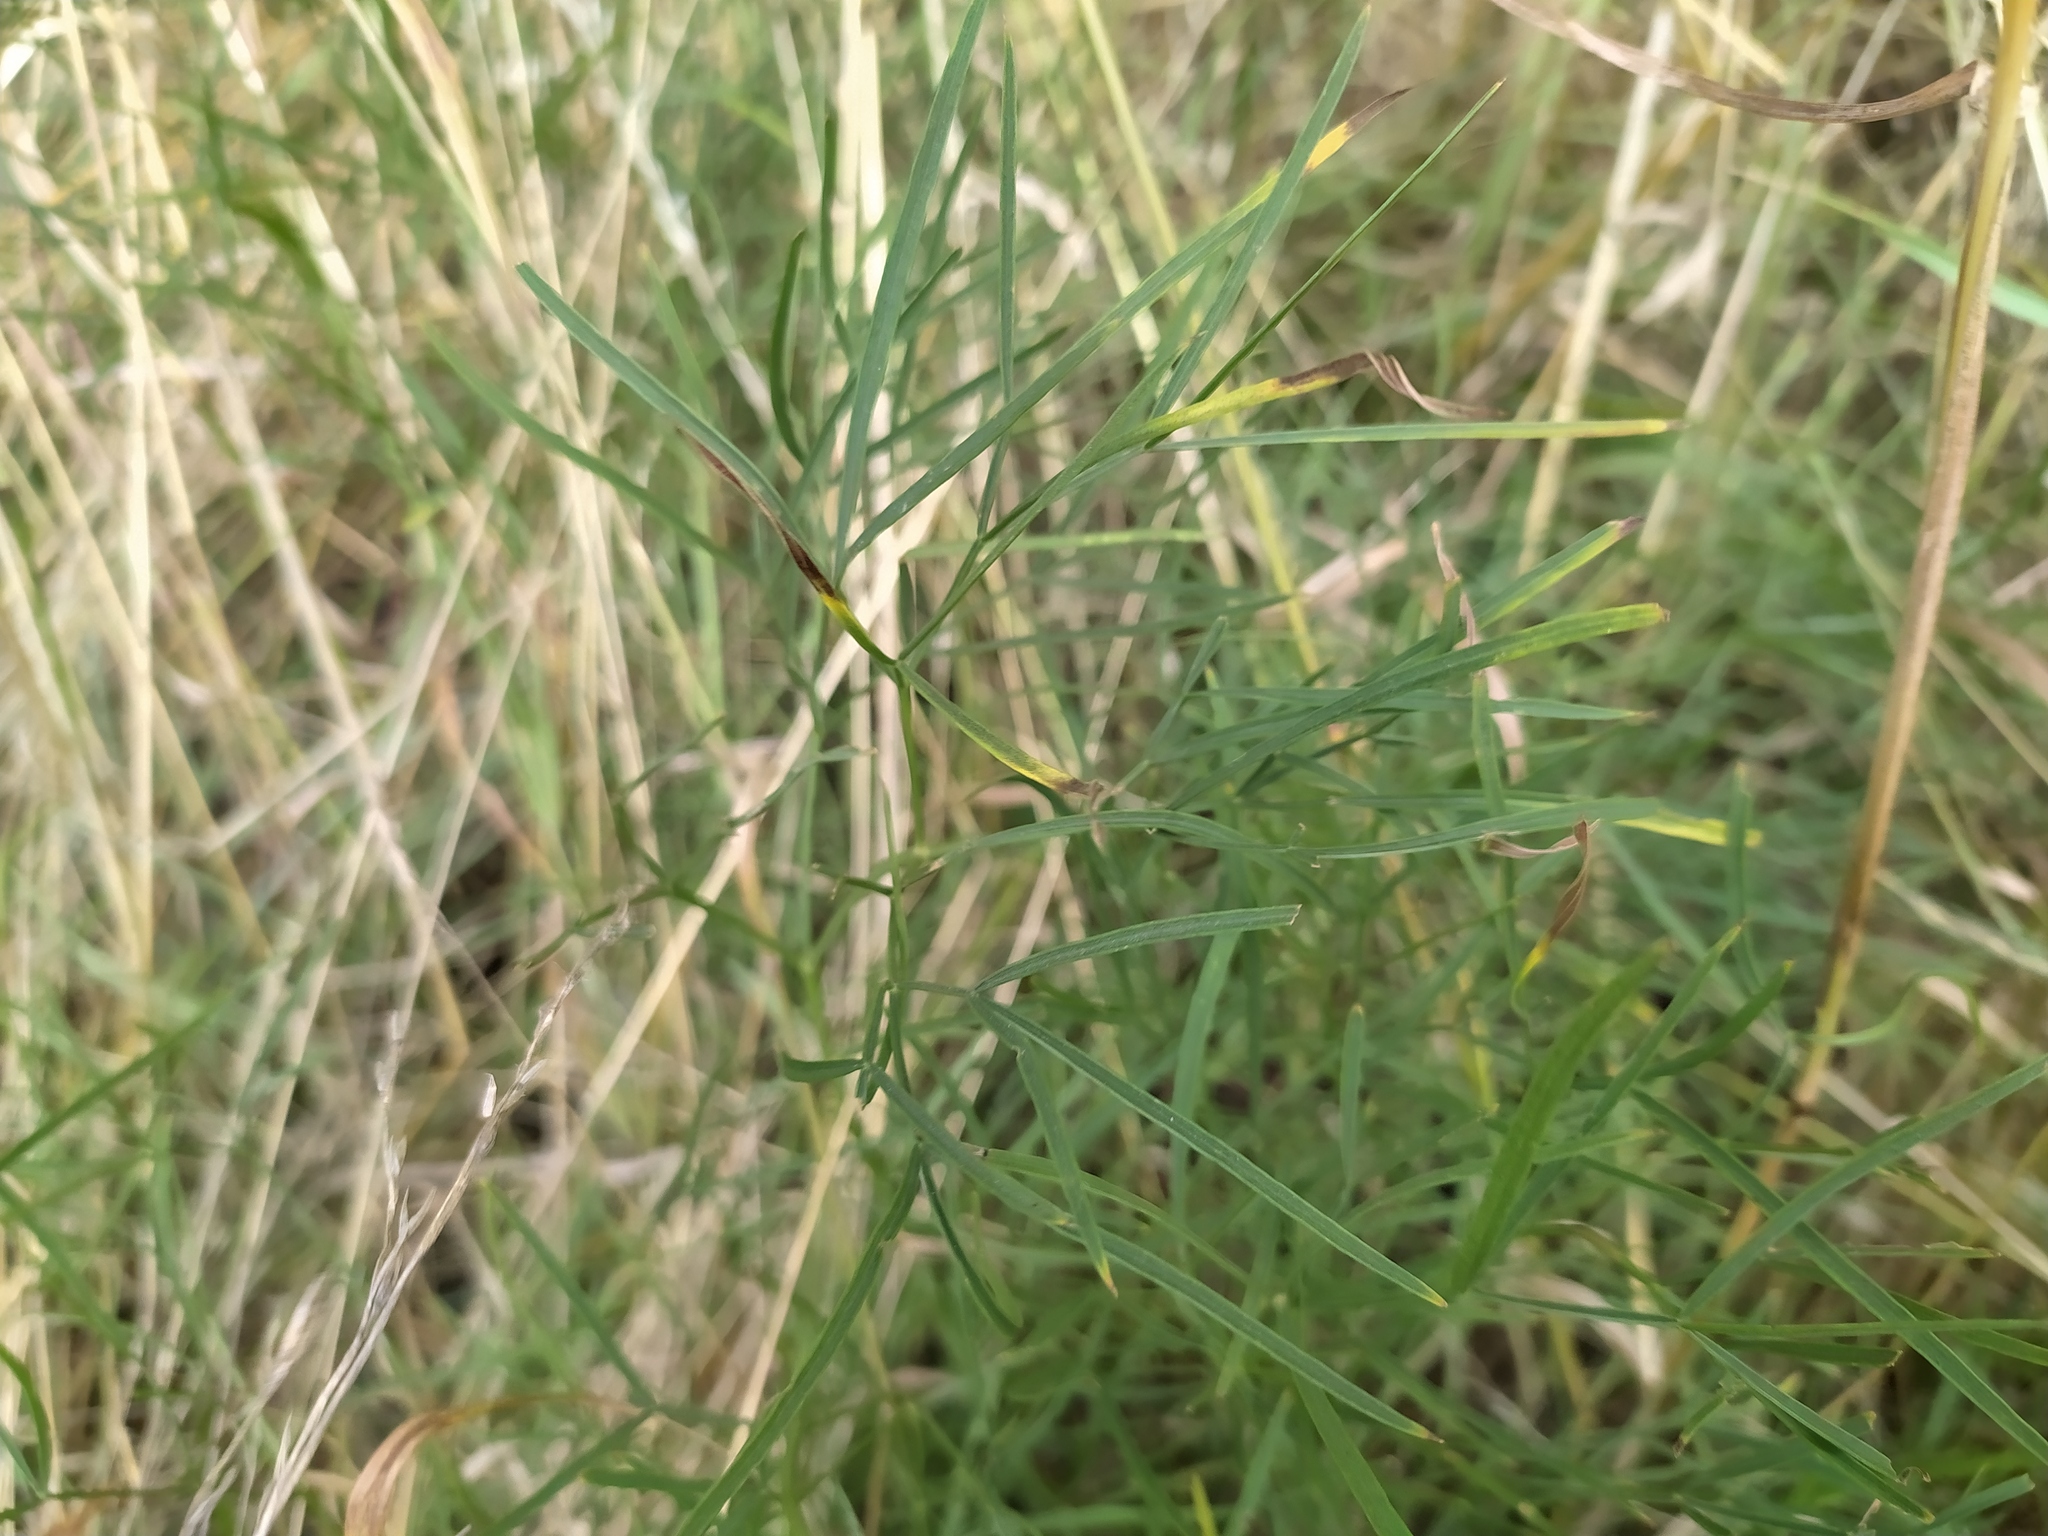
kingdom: Plantae
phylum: Tracheophyta
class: Magnoliopsida
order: Apiales
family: Apiaceae
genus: Peucedanum
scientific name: Peucedanum officinale
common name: Sulphurweed
